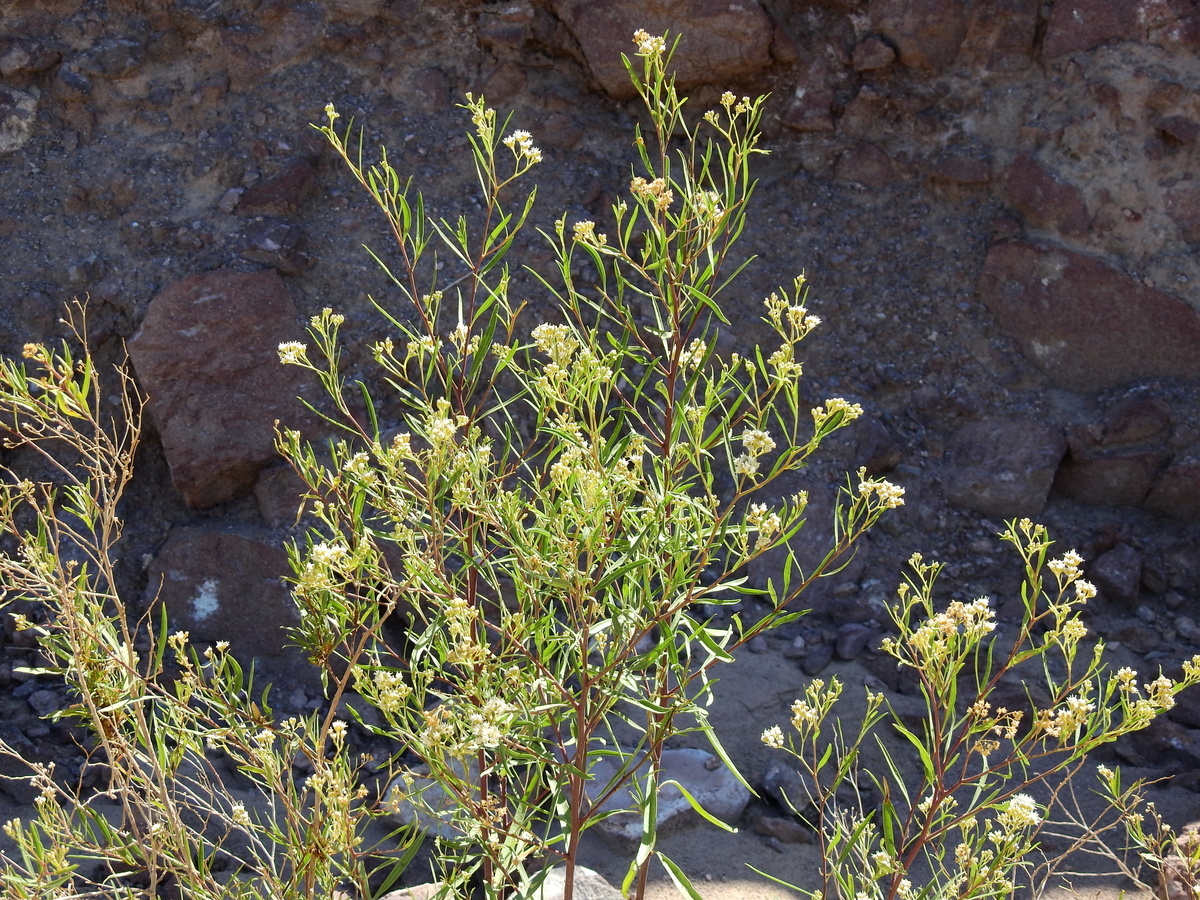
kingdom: Plantae
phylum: Tracheophyta
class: Magnoliopsida
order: Asterales
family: Asteraceae
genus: Baccharis
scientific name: Baccharis salicifolia
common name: Sticky baccharis
